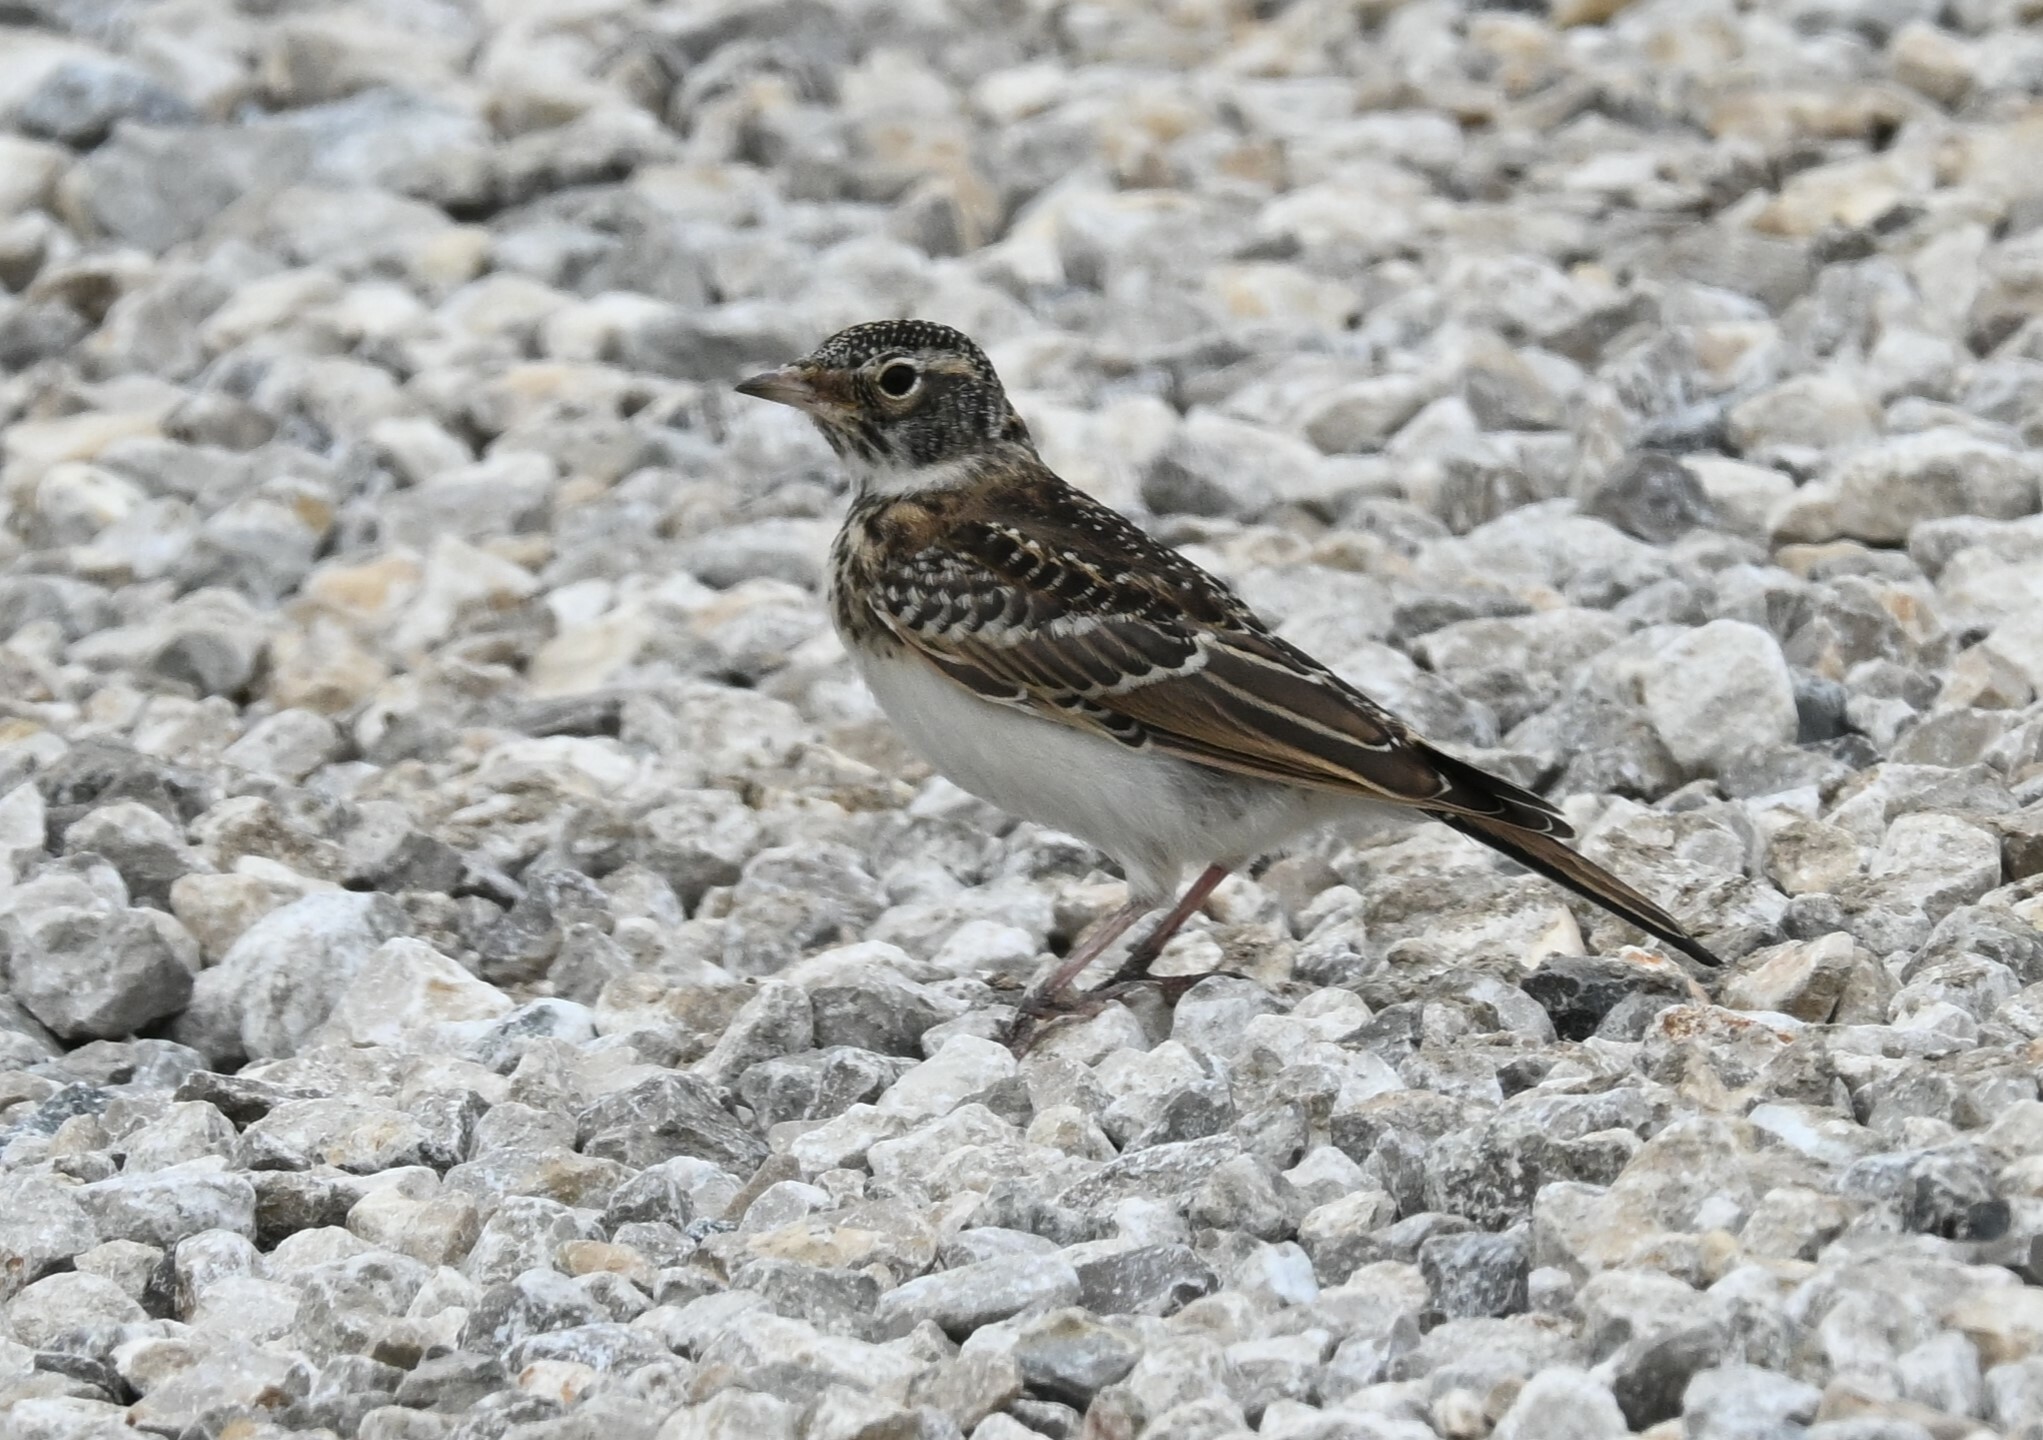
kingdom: Animalia
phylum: Chordata
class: Aves
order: Passeriformes
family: Alaudidae
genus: Eremophila
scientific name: Eremophila alpestris
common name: Horned lark
